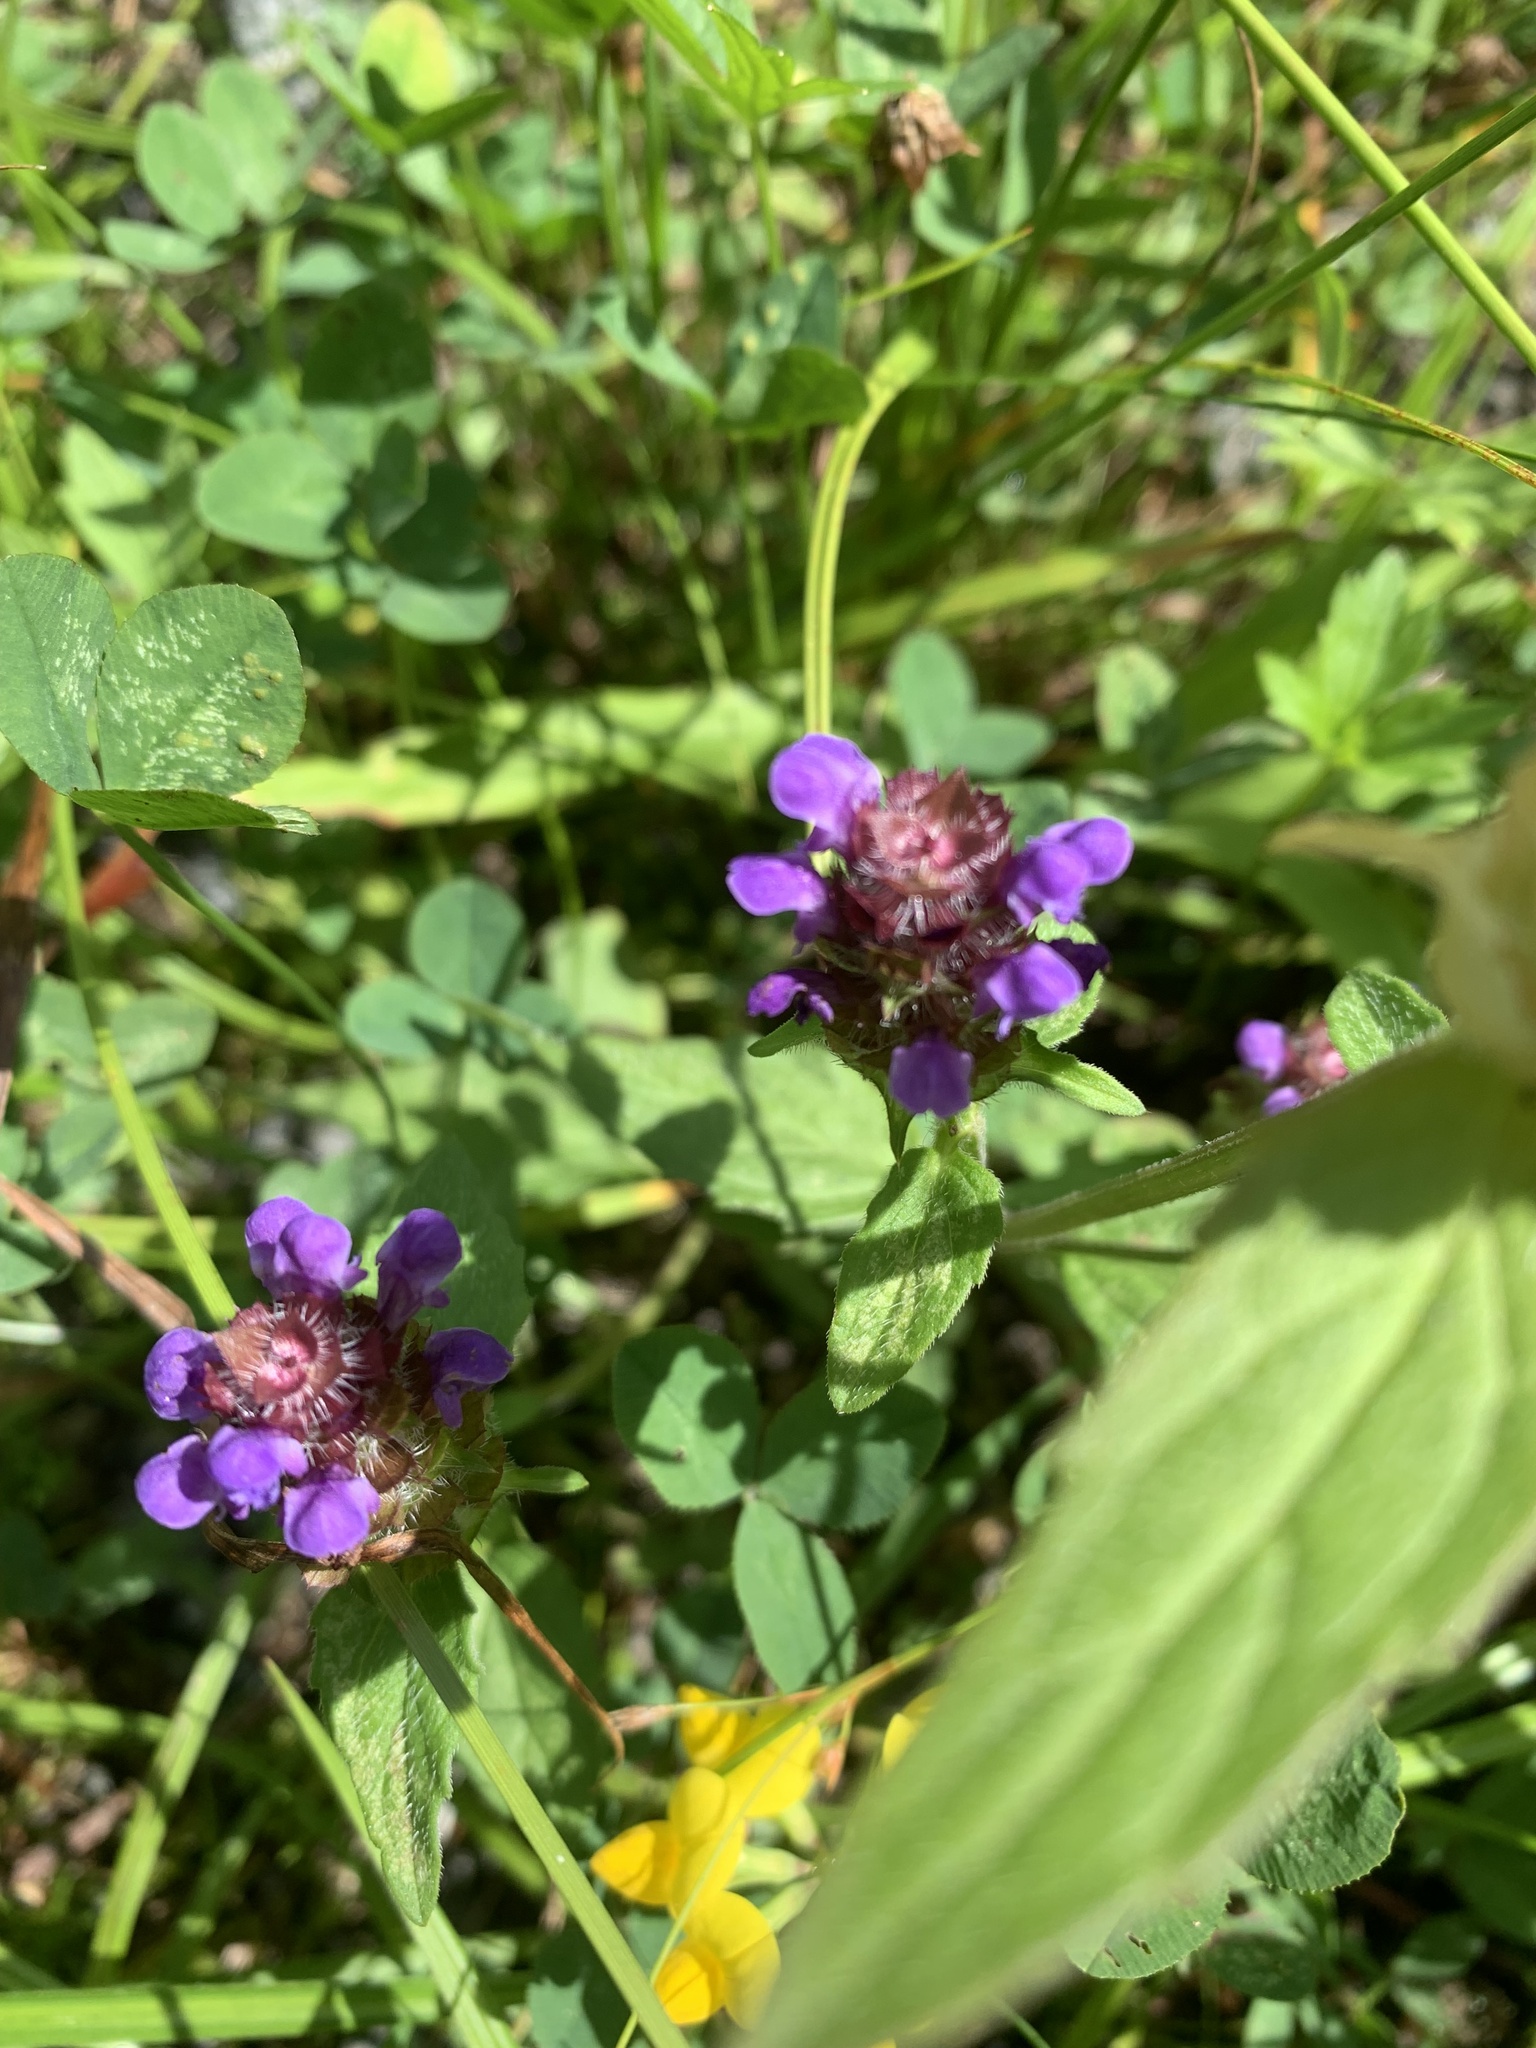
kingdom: Plantae
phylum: Tracheophyta
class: Magnoliopsida
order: Lamiales
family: Lamiaceae
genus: Prunella
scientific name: Prunella vulgaris
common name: Heal-all
